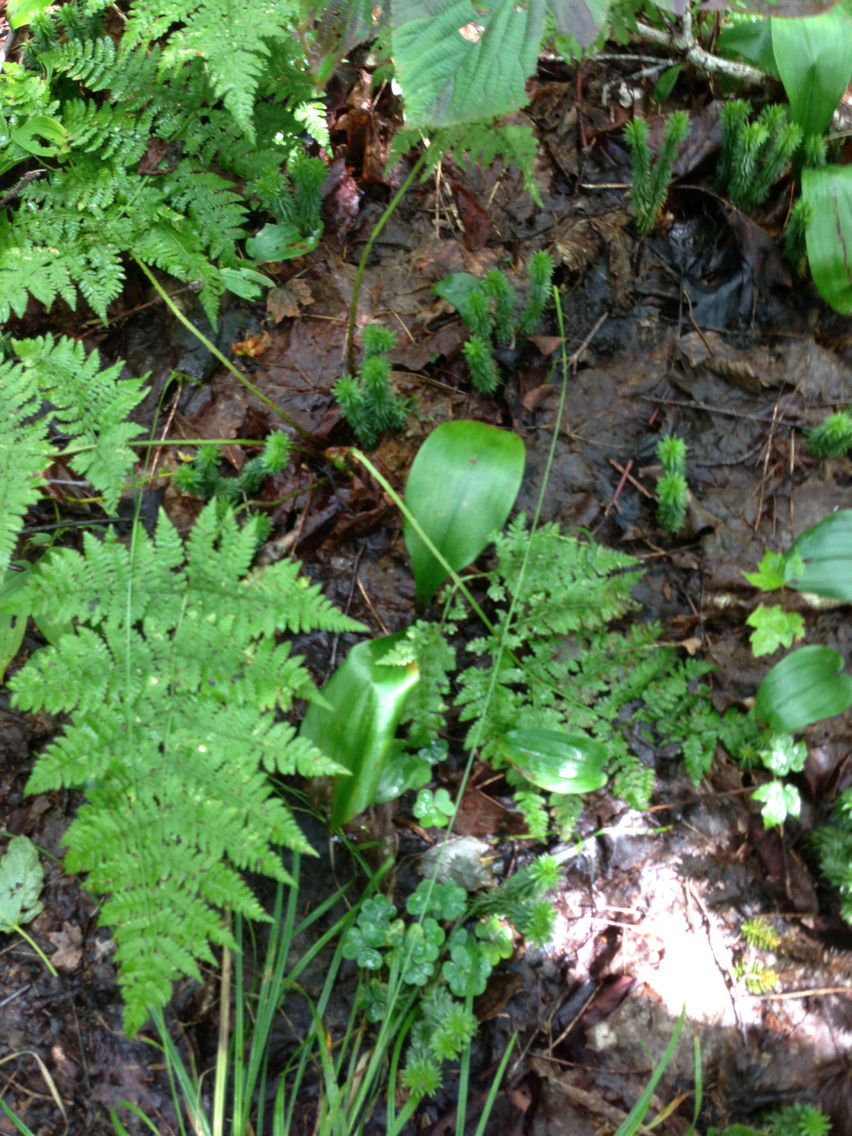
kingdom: Plantae
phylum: Tracheophyta
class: Polypodiopsida
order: Polypodiales
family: Dryopteridaceae
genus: Dryopteris
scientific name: Dryopteris campyloptera
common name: Mountain wood fern
